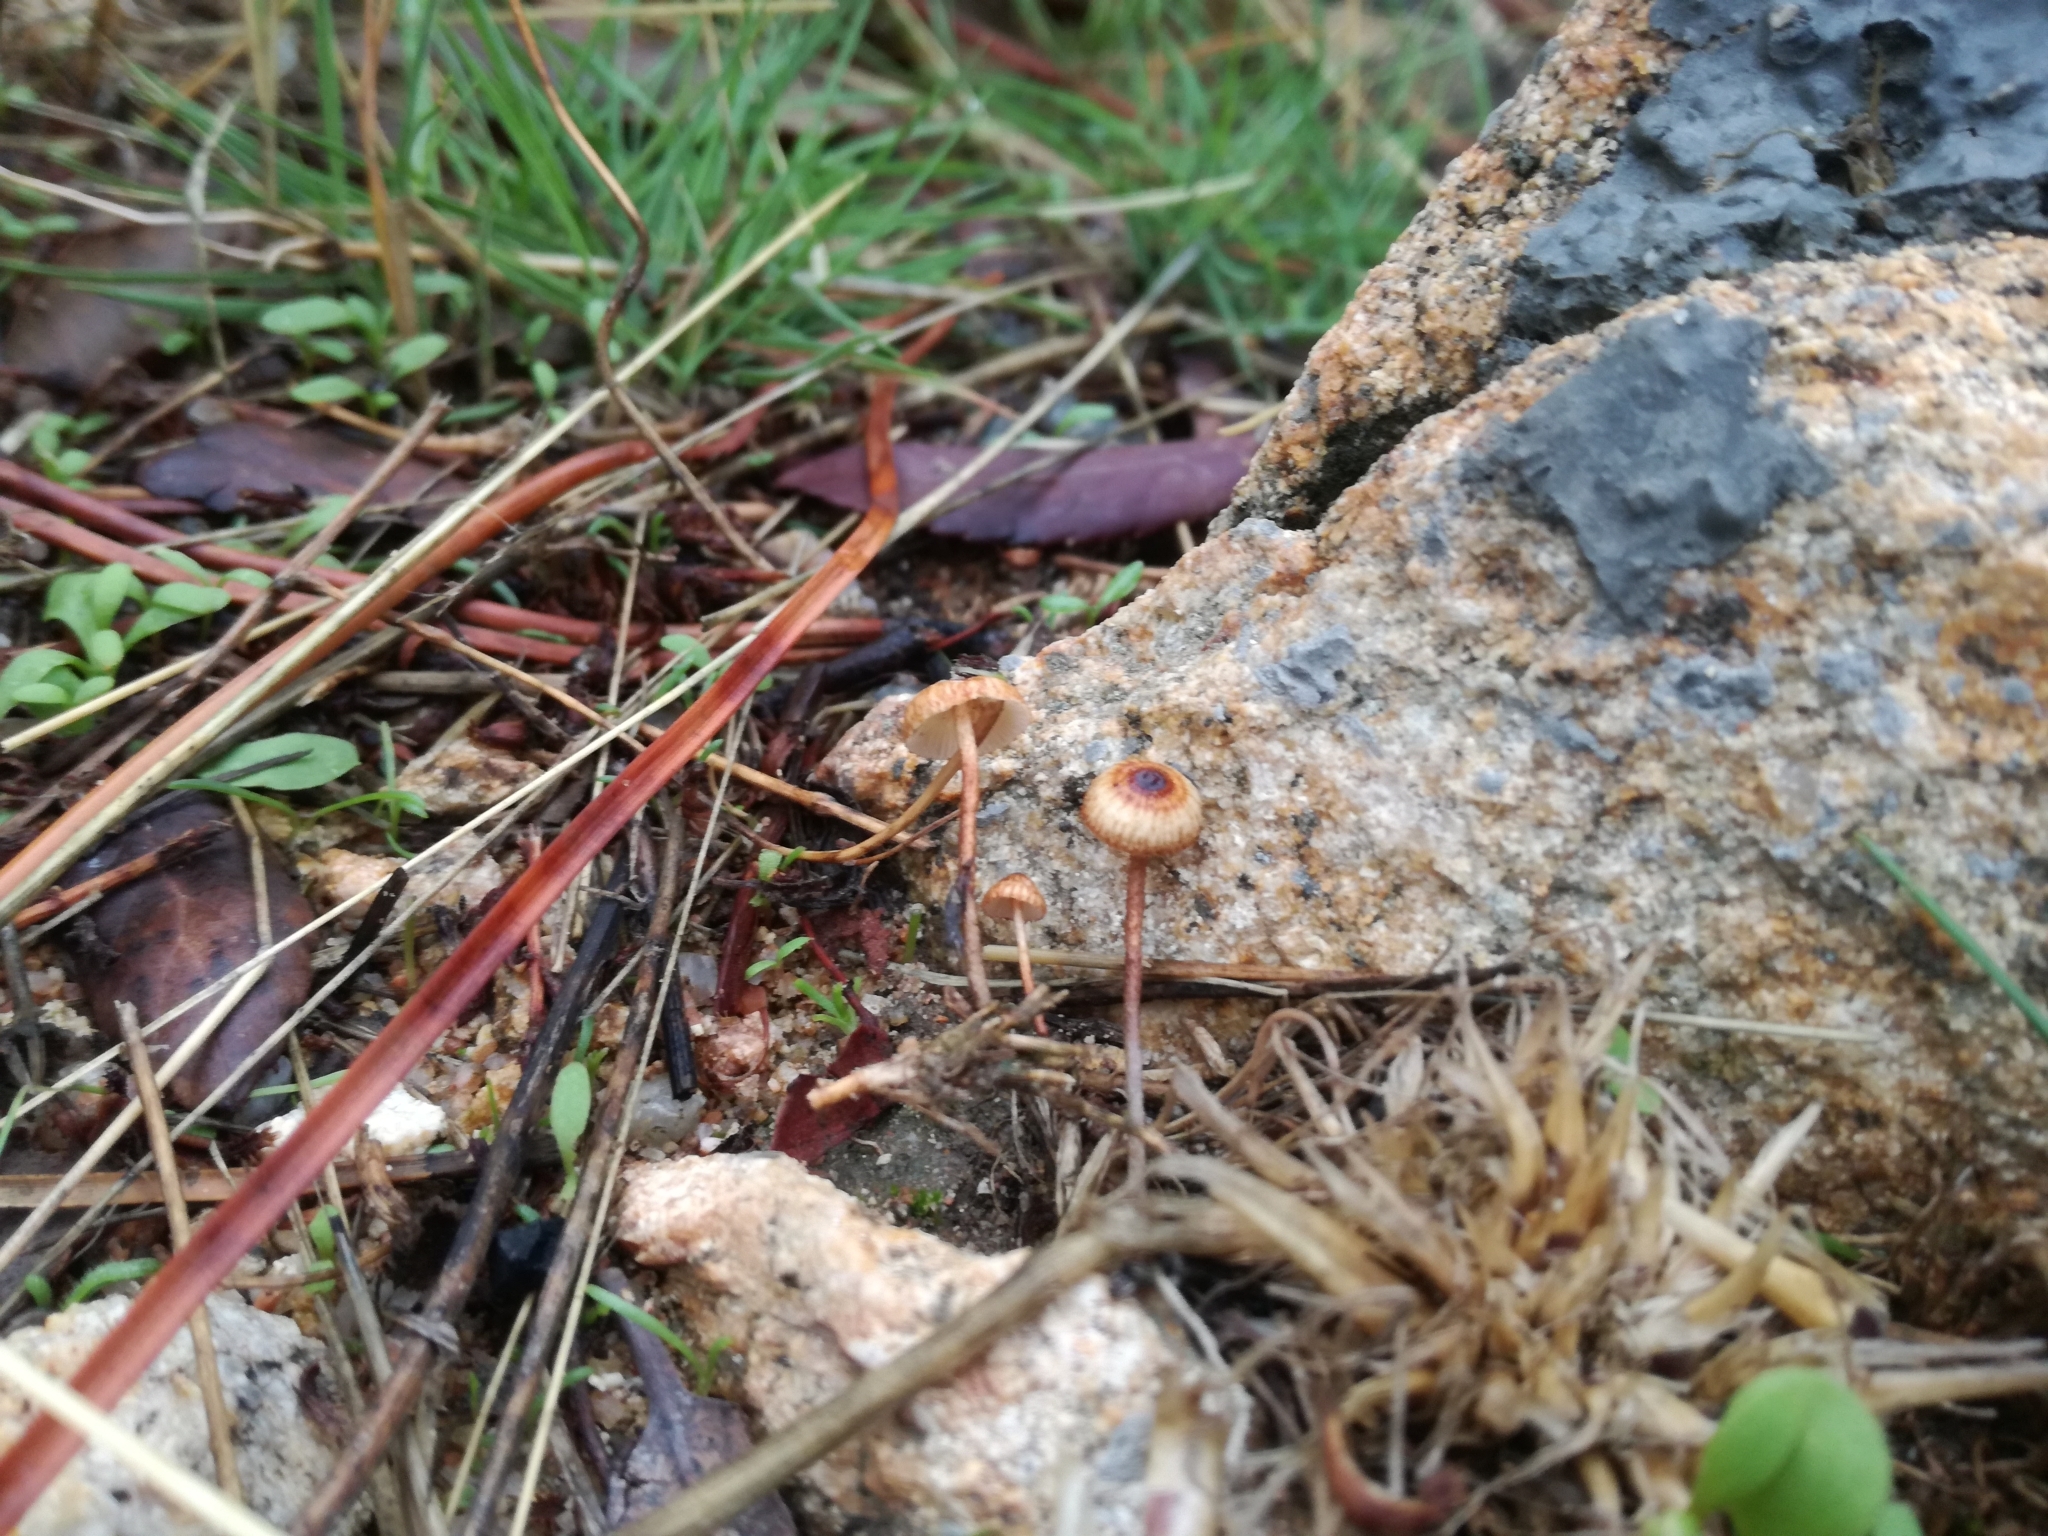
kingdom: Fungi
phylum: Basidiomycota
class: Agaricomycetes
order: Agaricales
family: Marasmiaceae
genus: Crinipellis
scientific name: Crinipellis scabella
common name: Hairy parachute
